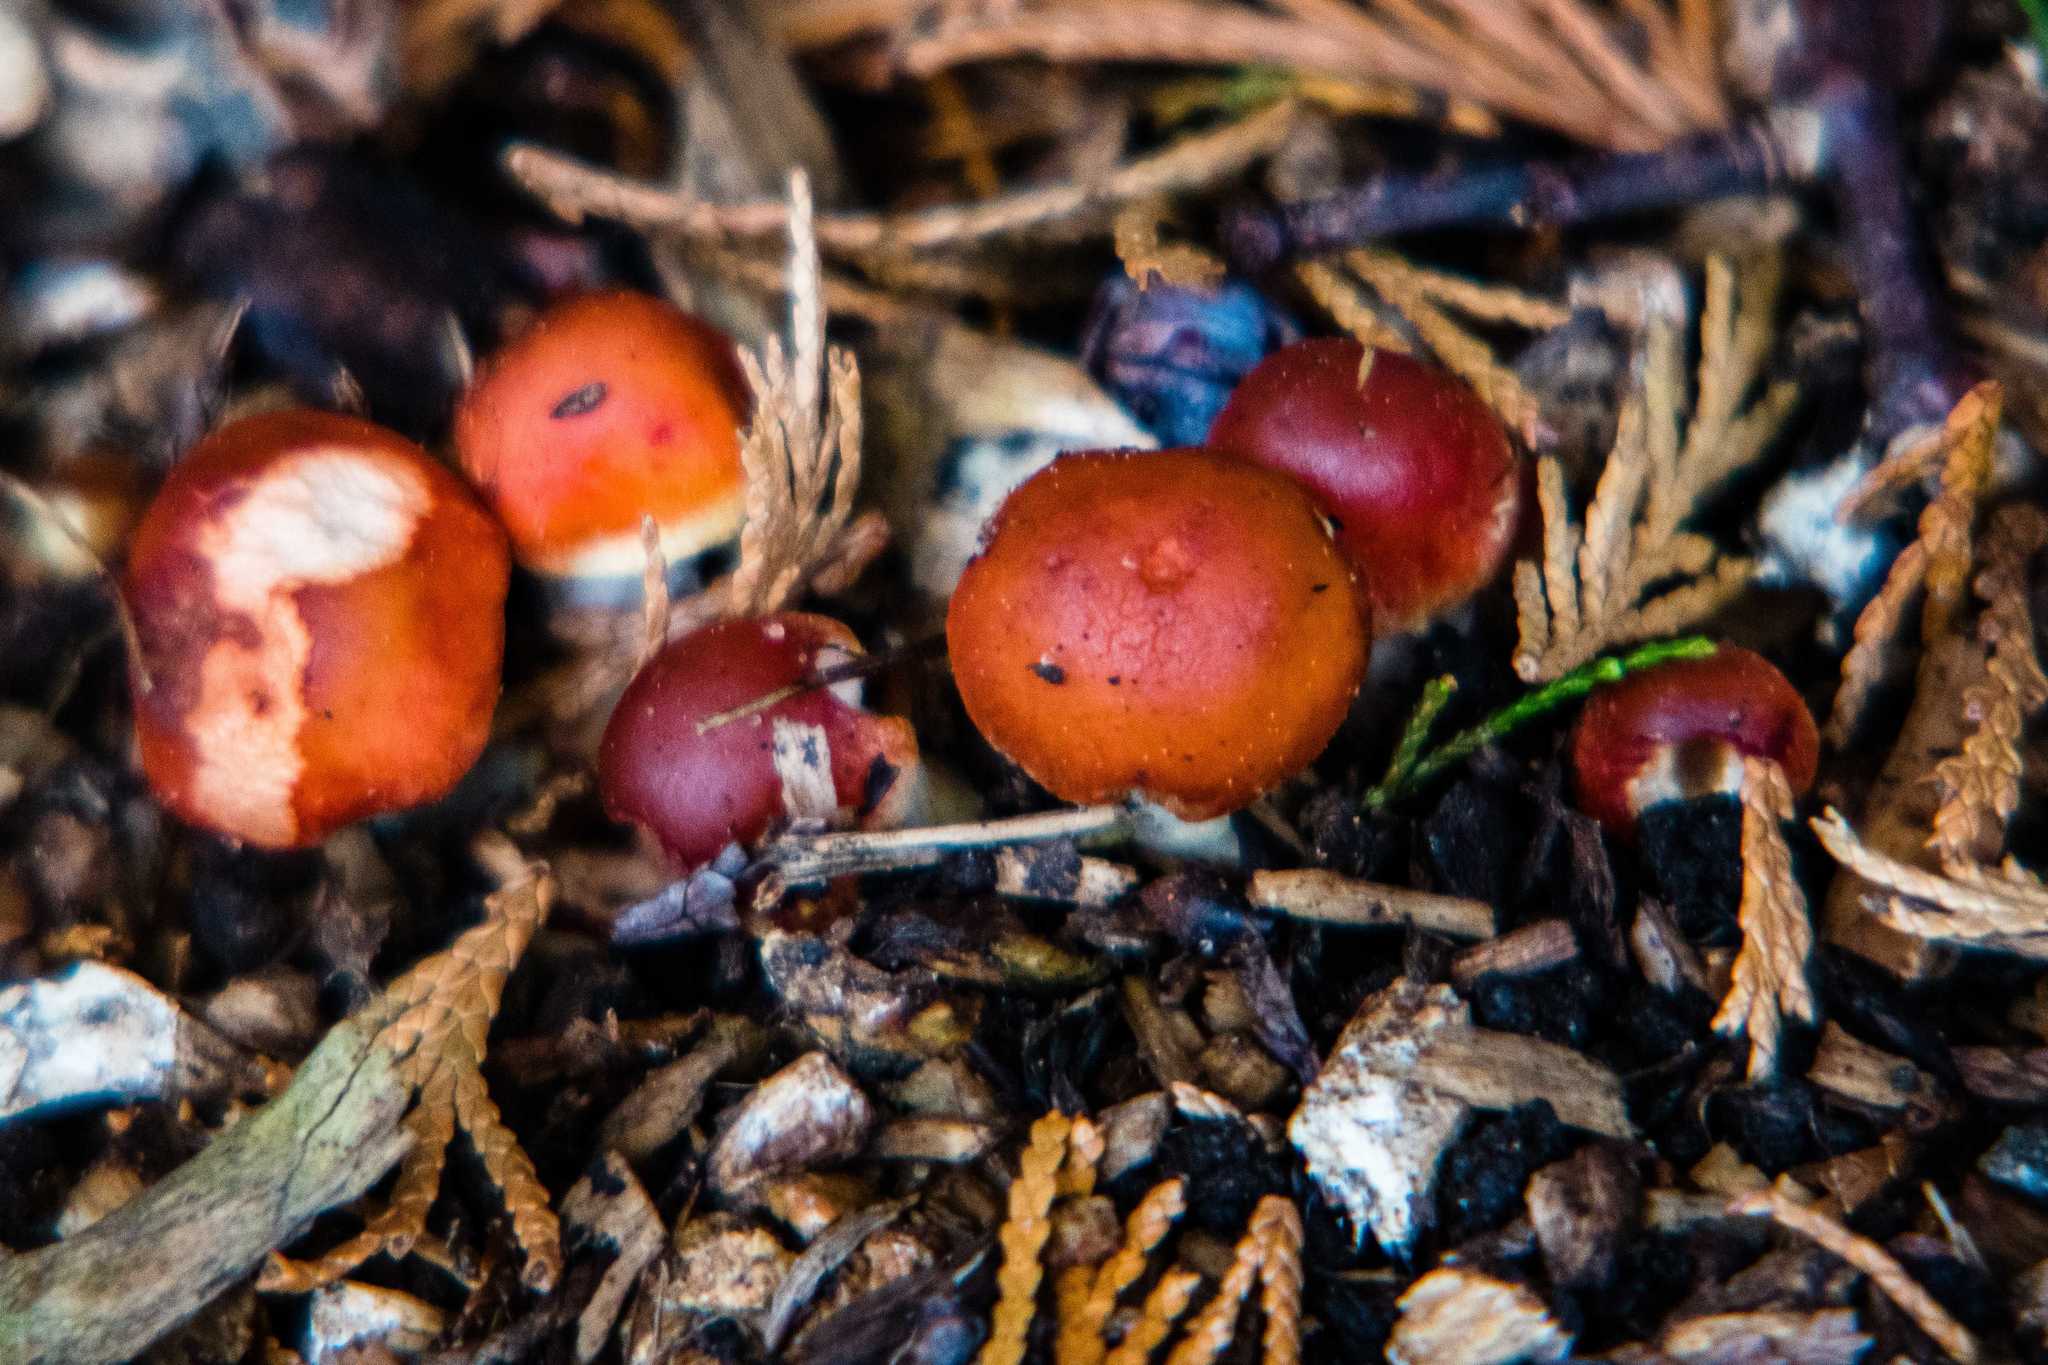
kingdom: Fungi
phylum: Basidiomycota
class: Agaricomycetes
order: Agaricales
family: Strophariaceae
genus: Leratiomyces
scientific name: Leratiomyces ceres
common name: Redlead roundhead
